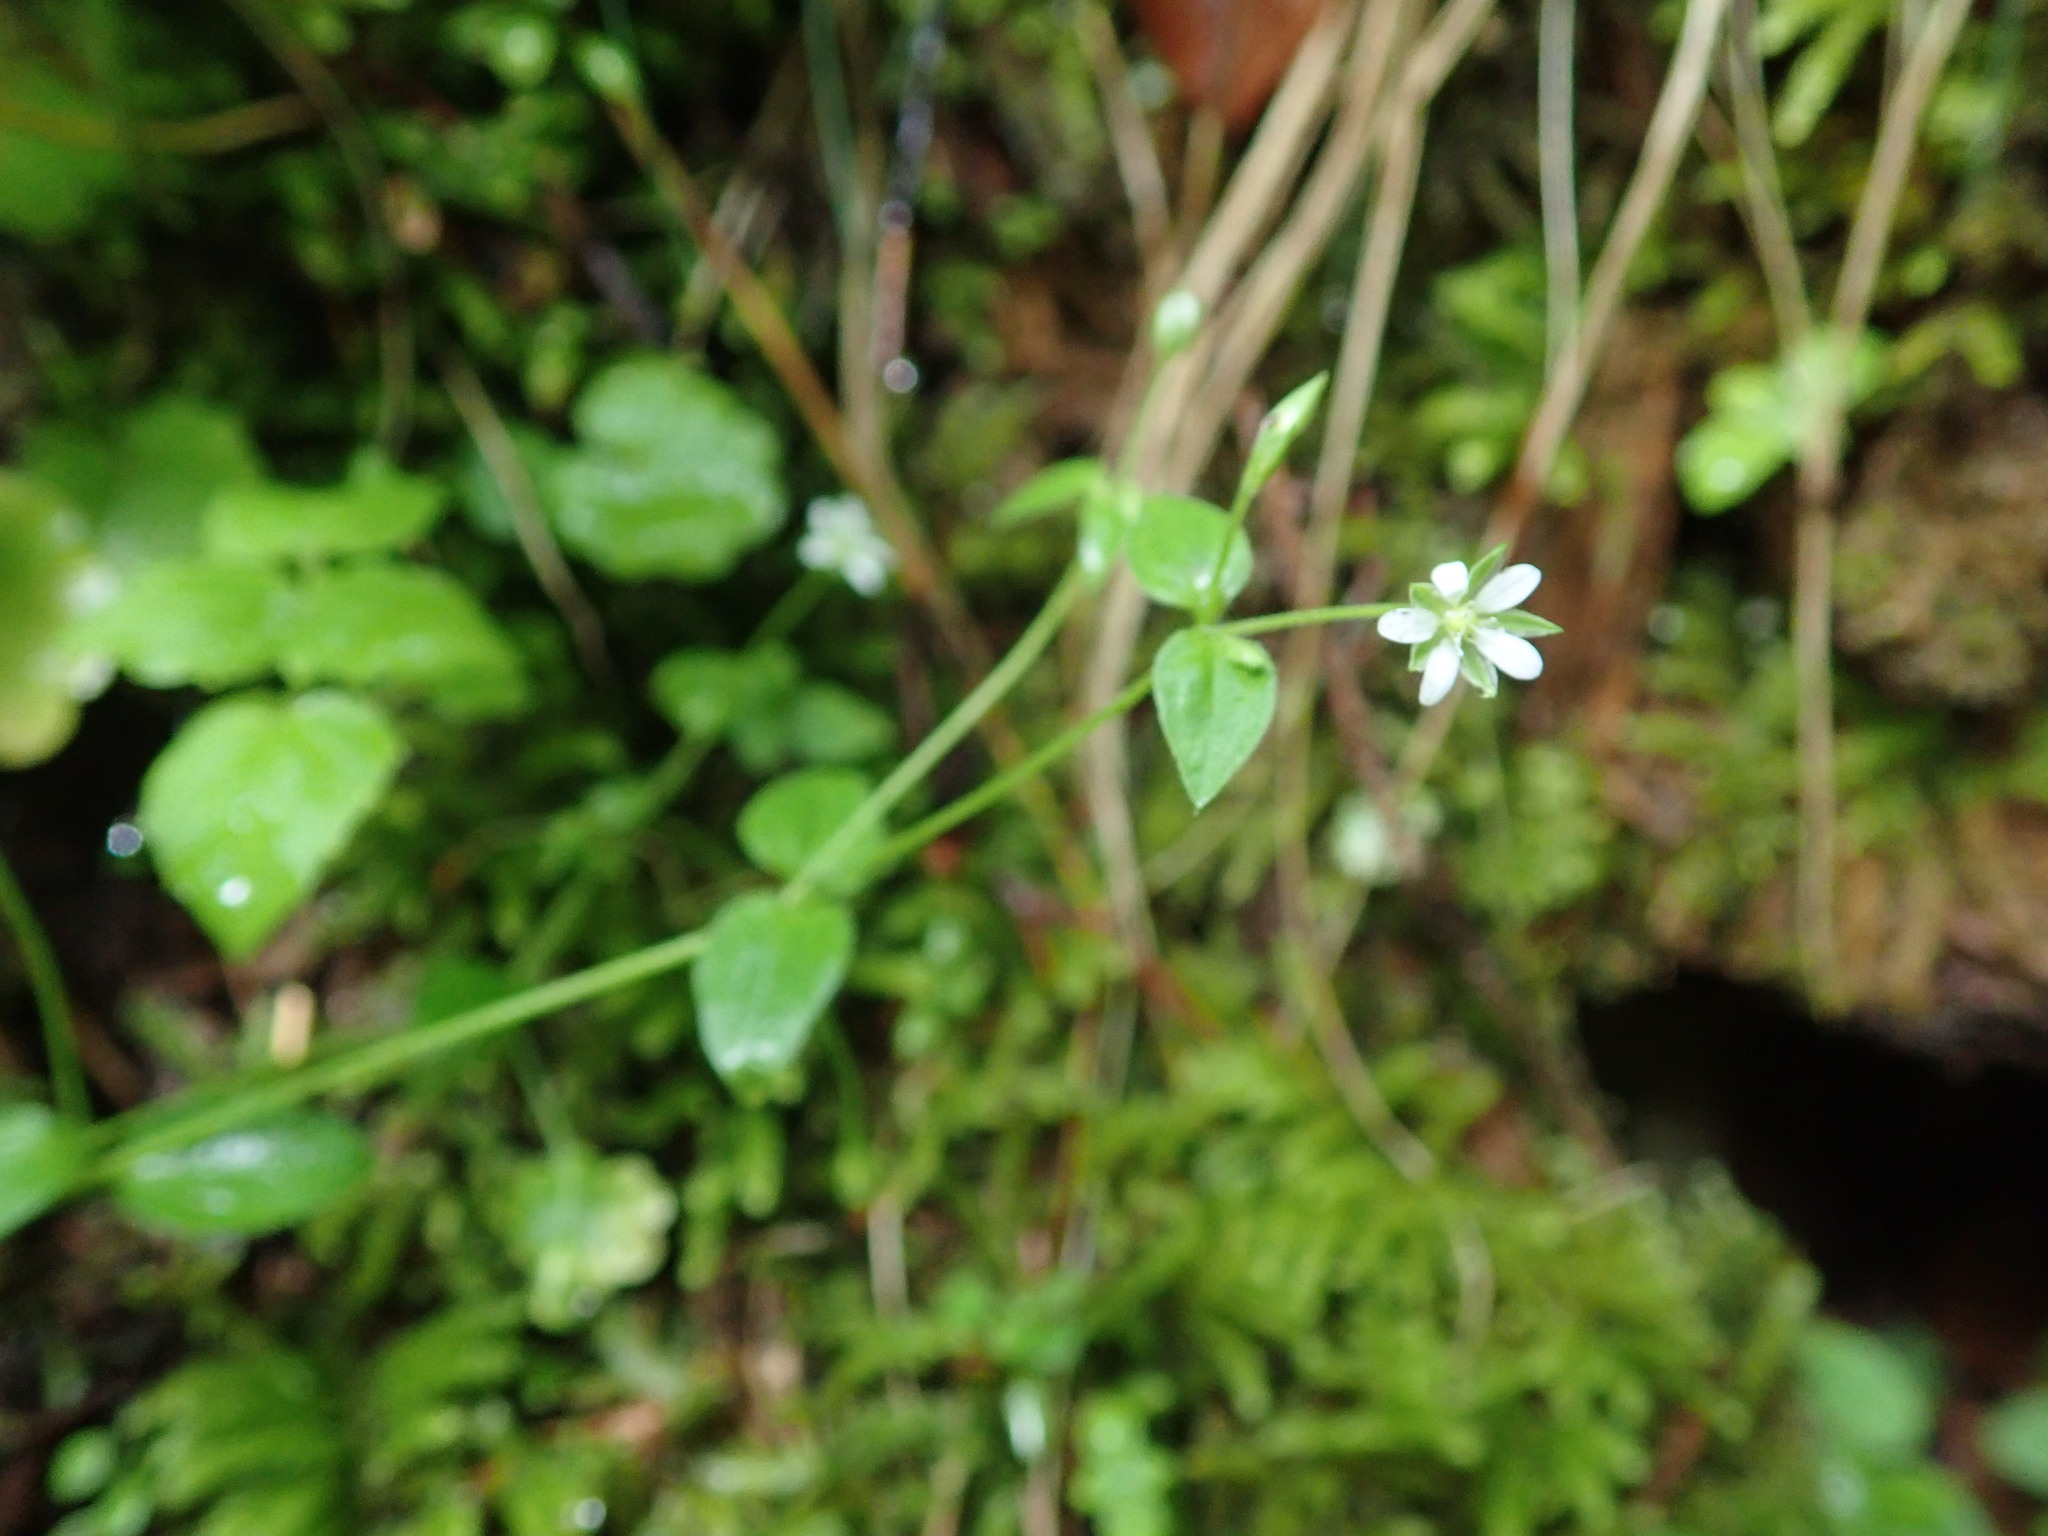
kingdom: Plantae
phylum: Tracheophyta
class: Magnoliopsida
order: Caryophyllales
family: Caryophyllaceae
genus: Moehringia
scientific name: Moehringia trinervia
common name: Three-nerved sandwort
